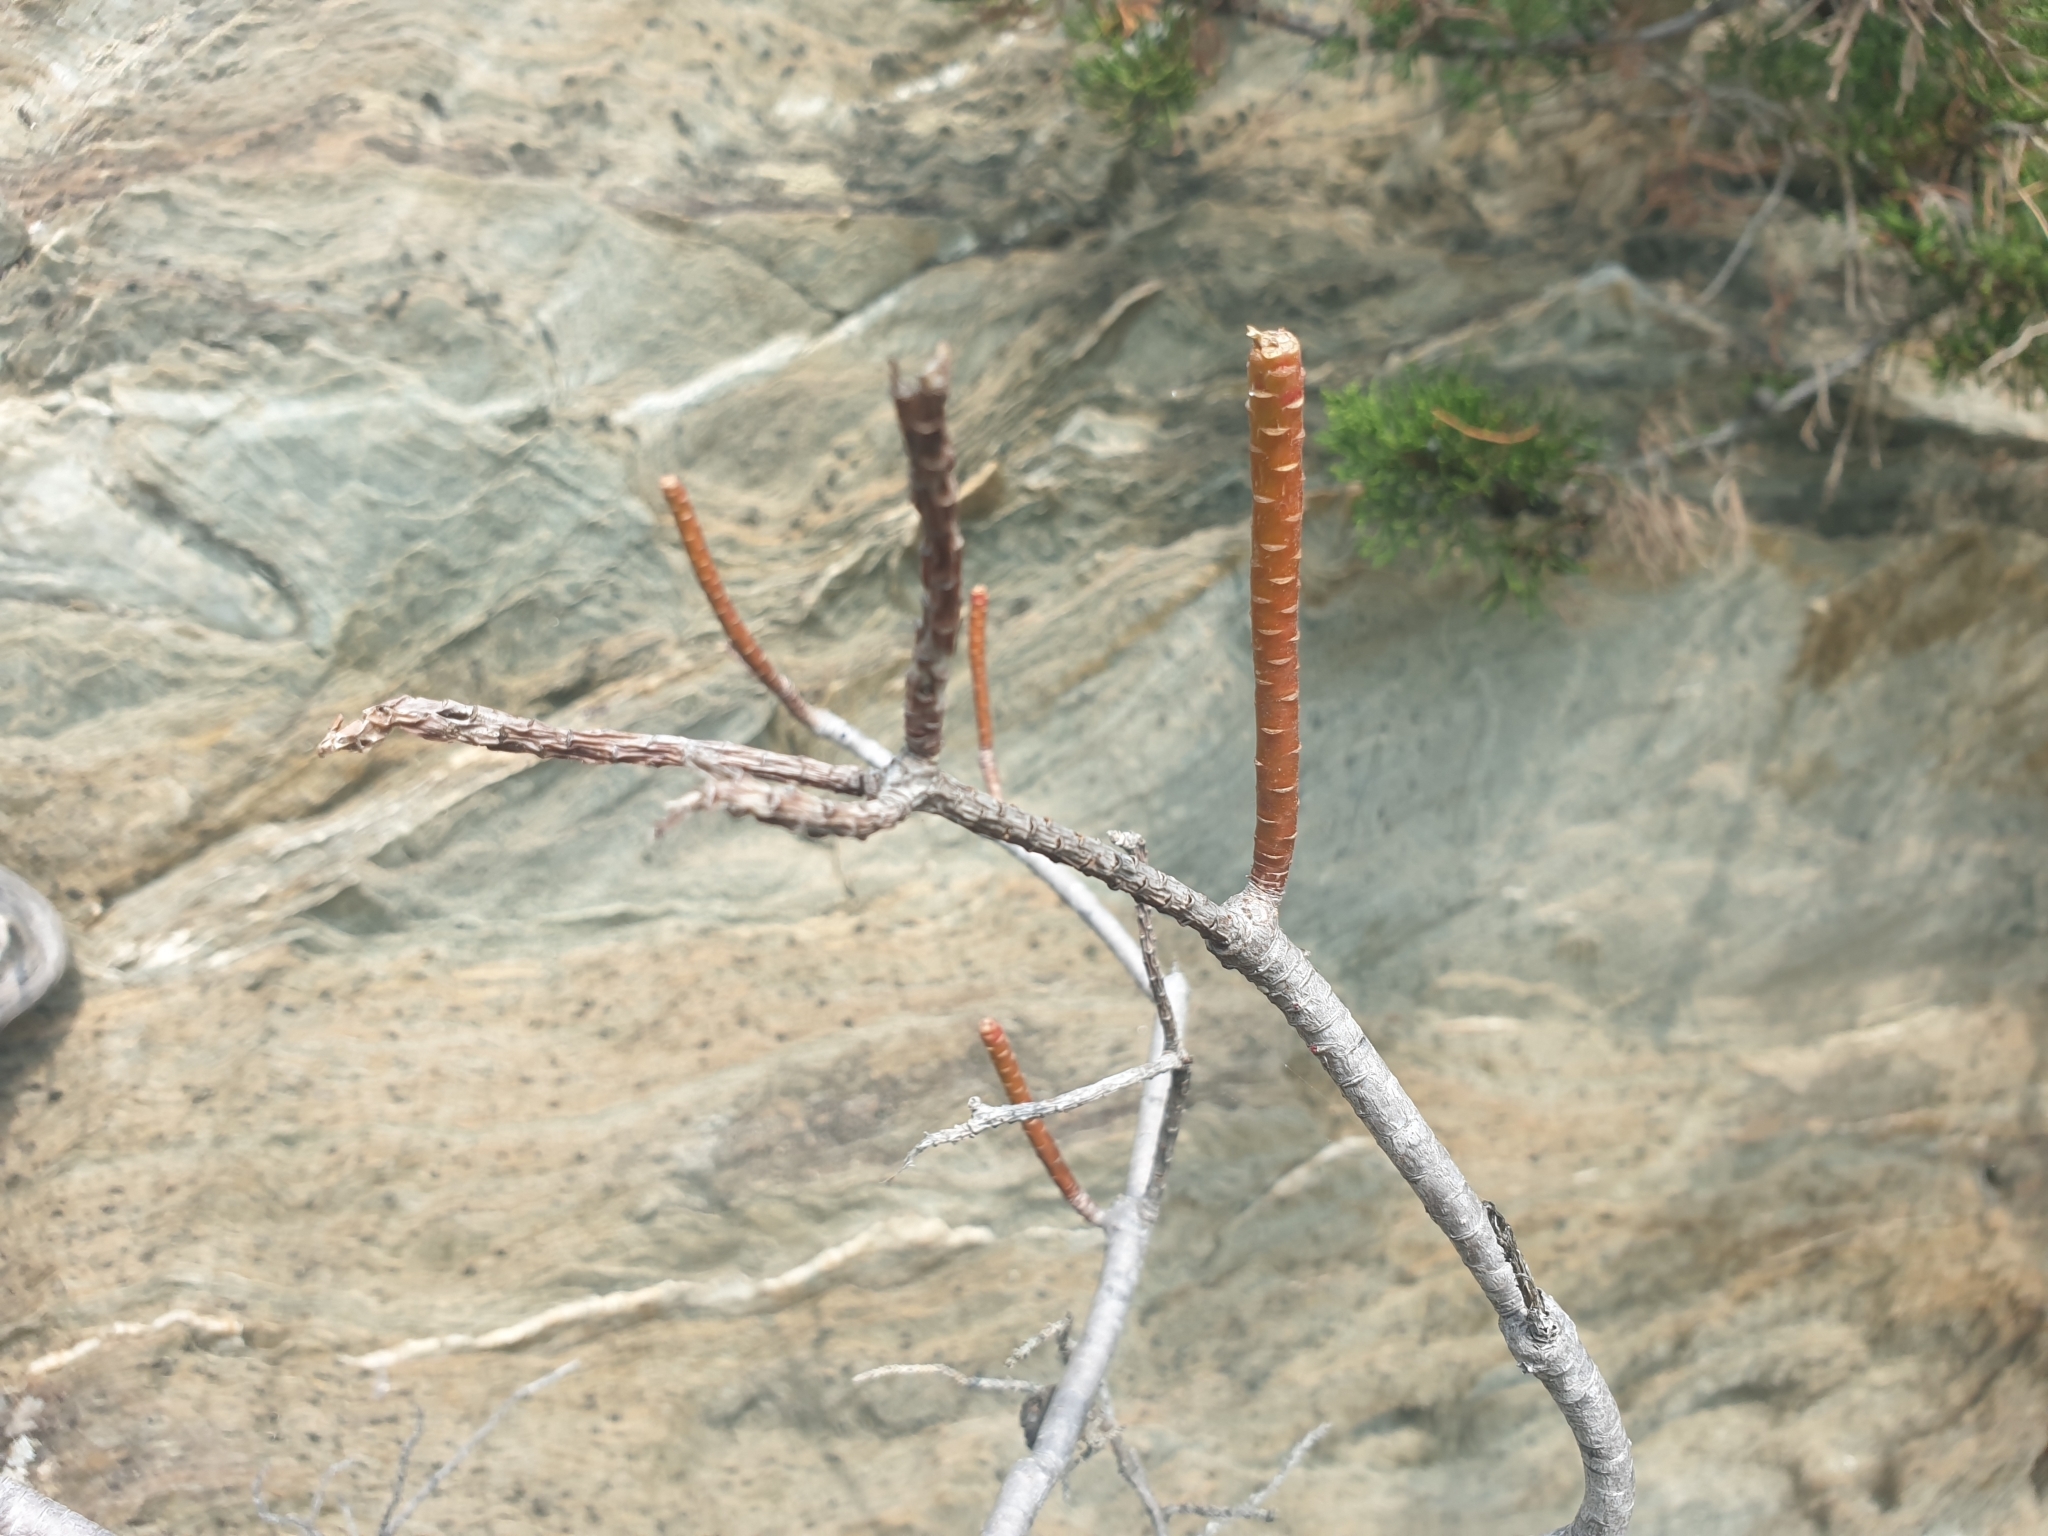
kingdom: Plantae
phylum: Tracheophyta
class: Magnoliopsida
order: Malpighiales
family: Euphorbiaceae
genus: Euphorbia
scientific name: Euphorbia dendroides
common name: Tree spurge
